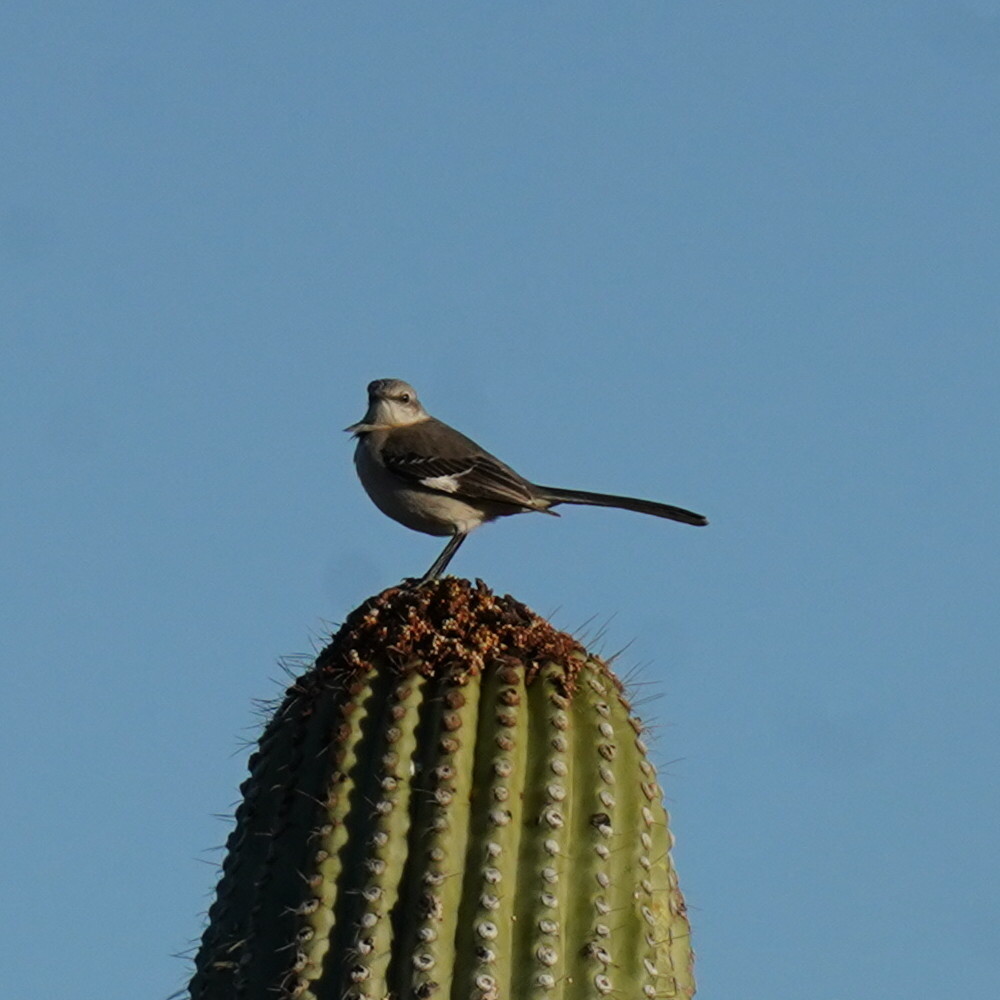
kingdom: Animalia
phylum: Chordata
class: Aves
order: Passeriformes
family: Mimidae
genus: Mimus
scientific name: Mimus polyglottos
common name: Northern mockingbird
